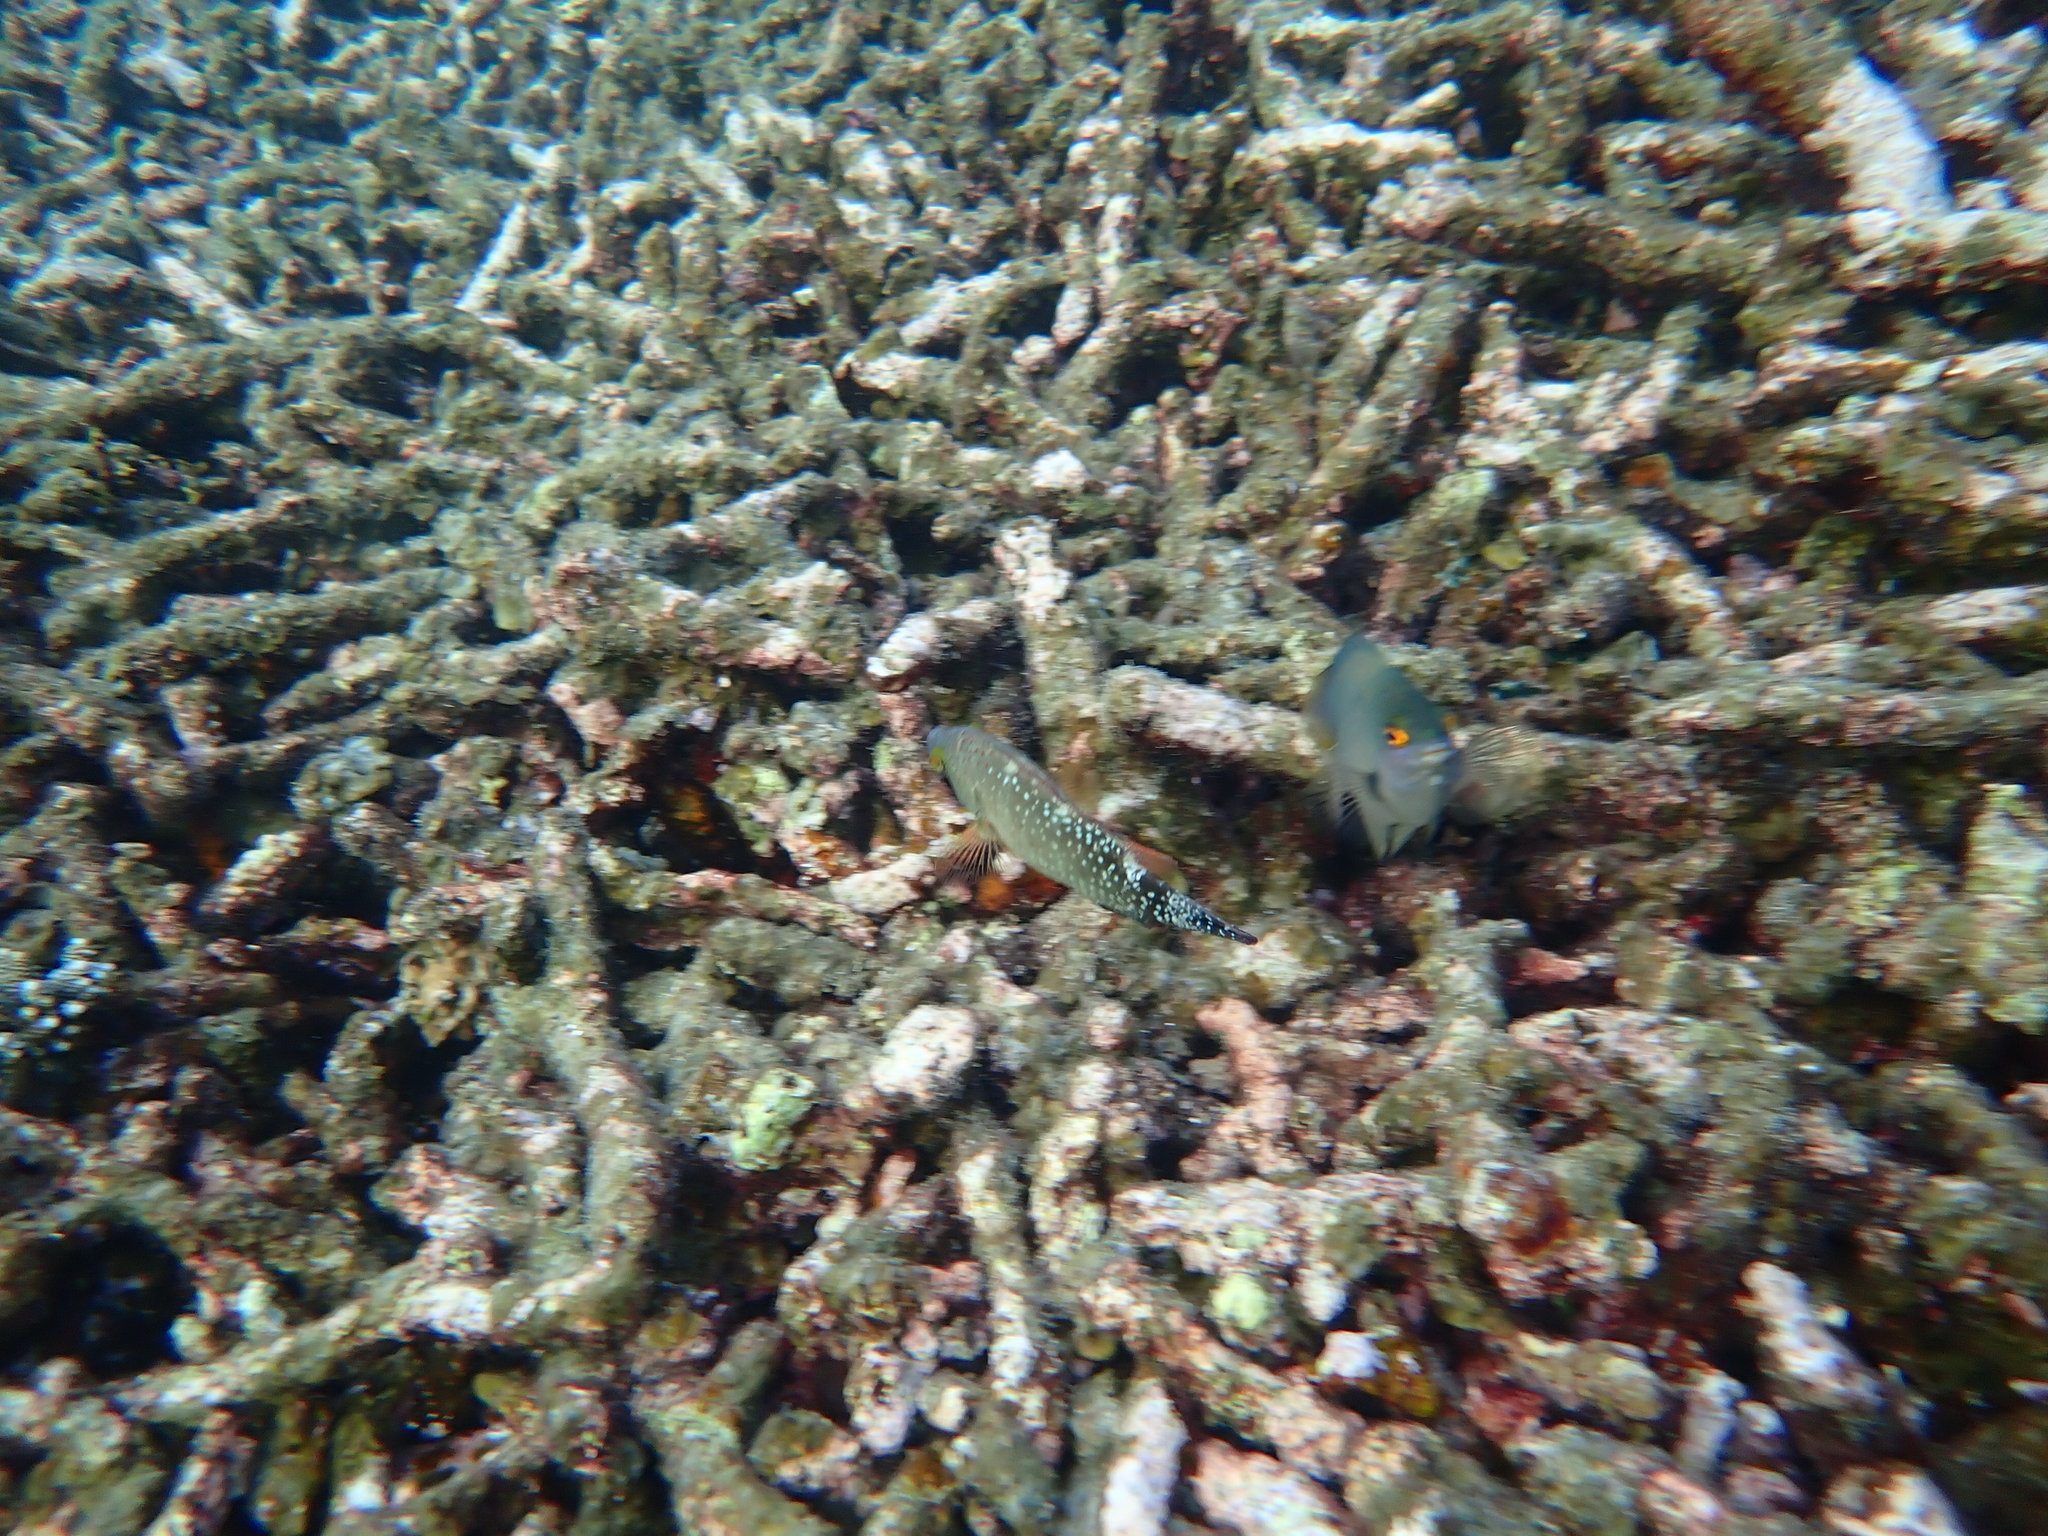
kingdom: Animalia
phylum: Chordata
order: Perciformes
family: Labridae
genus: Cheilinus
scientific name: Cheilinus chlorourus
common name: Floral wrasse
